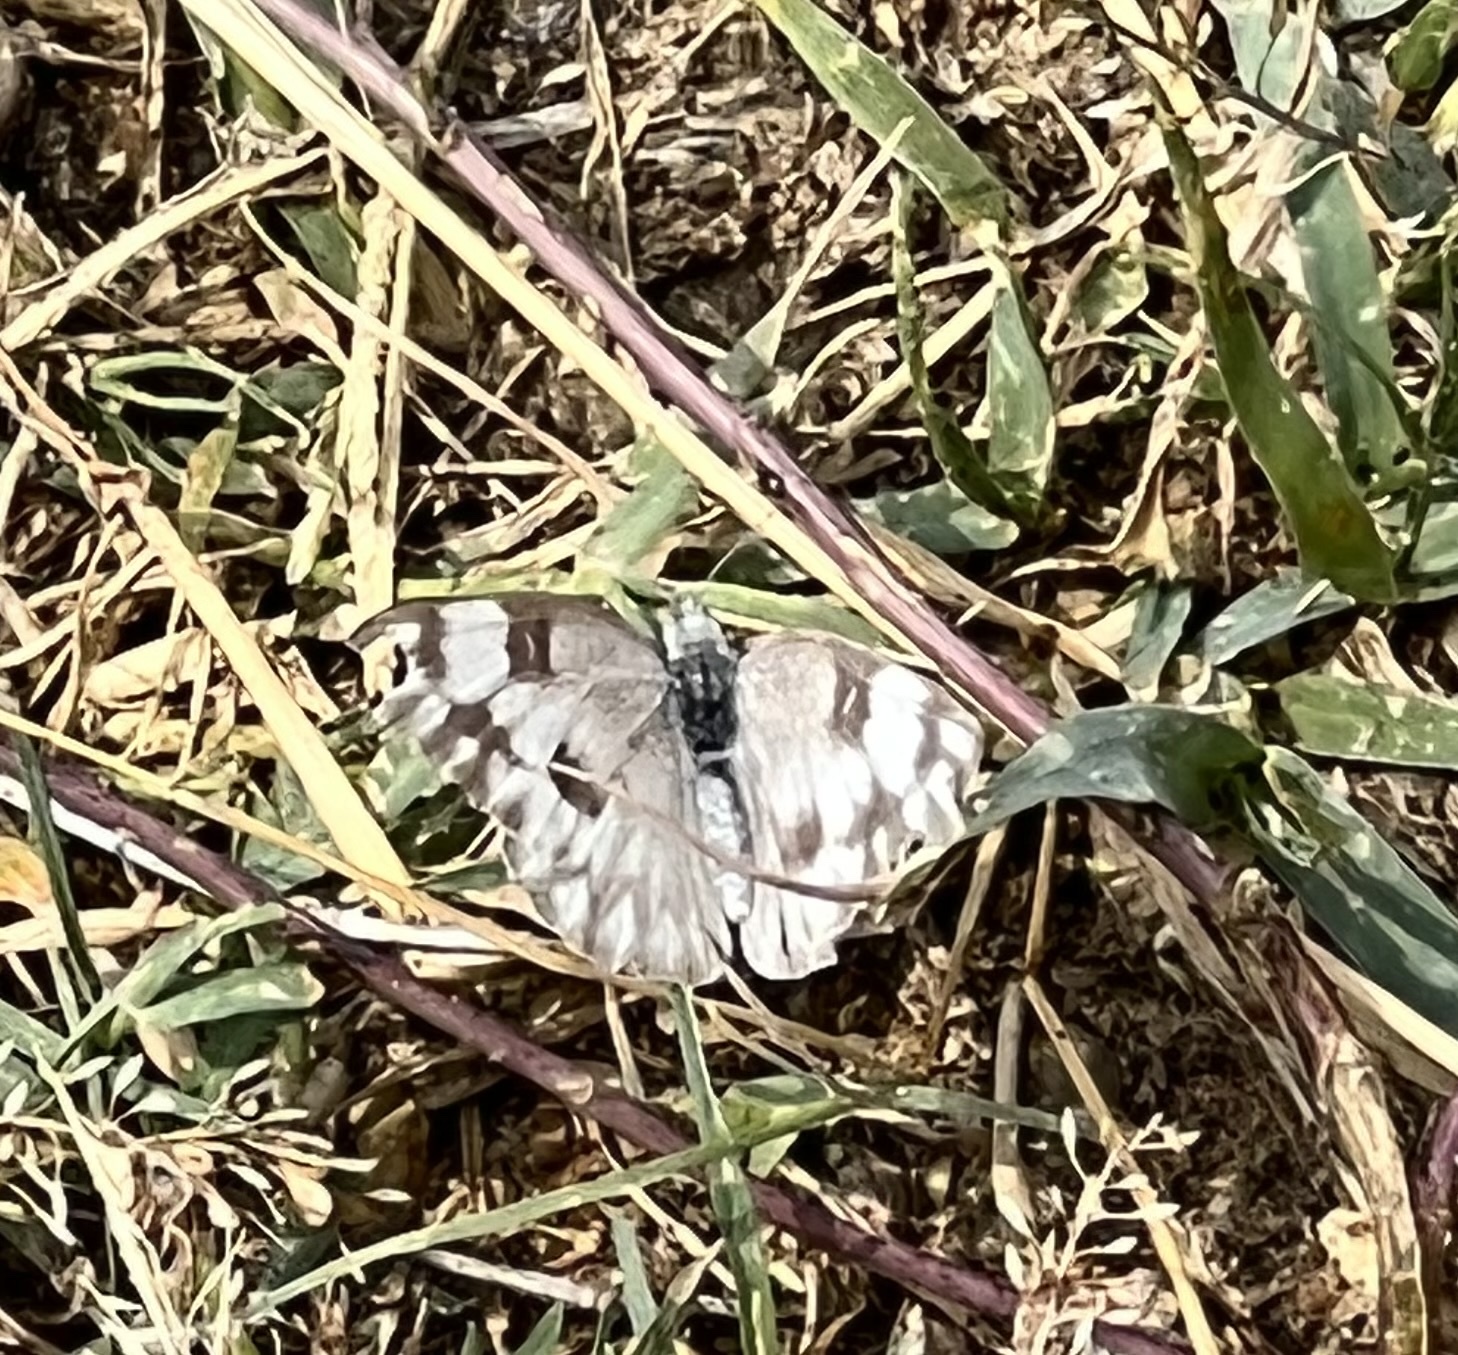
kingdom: Animalia
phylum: Arthropoda
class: Insecta
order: Lepidoptera
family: Pieridae
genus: Pontia
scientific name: Pontia protodice
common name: Checkered white
